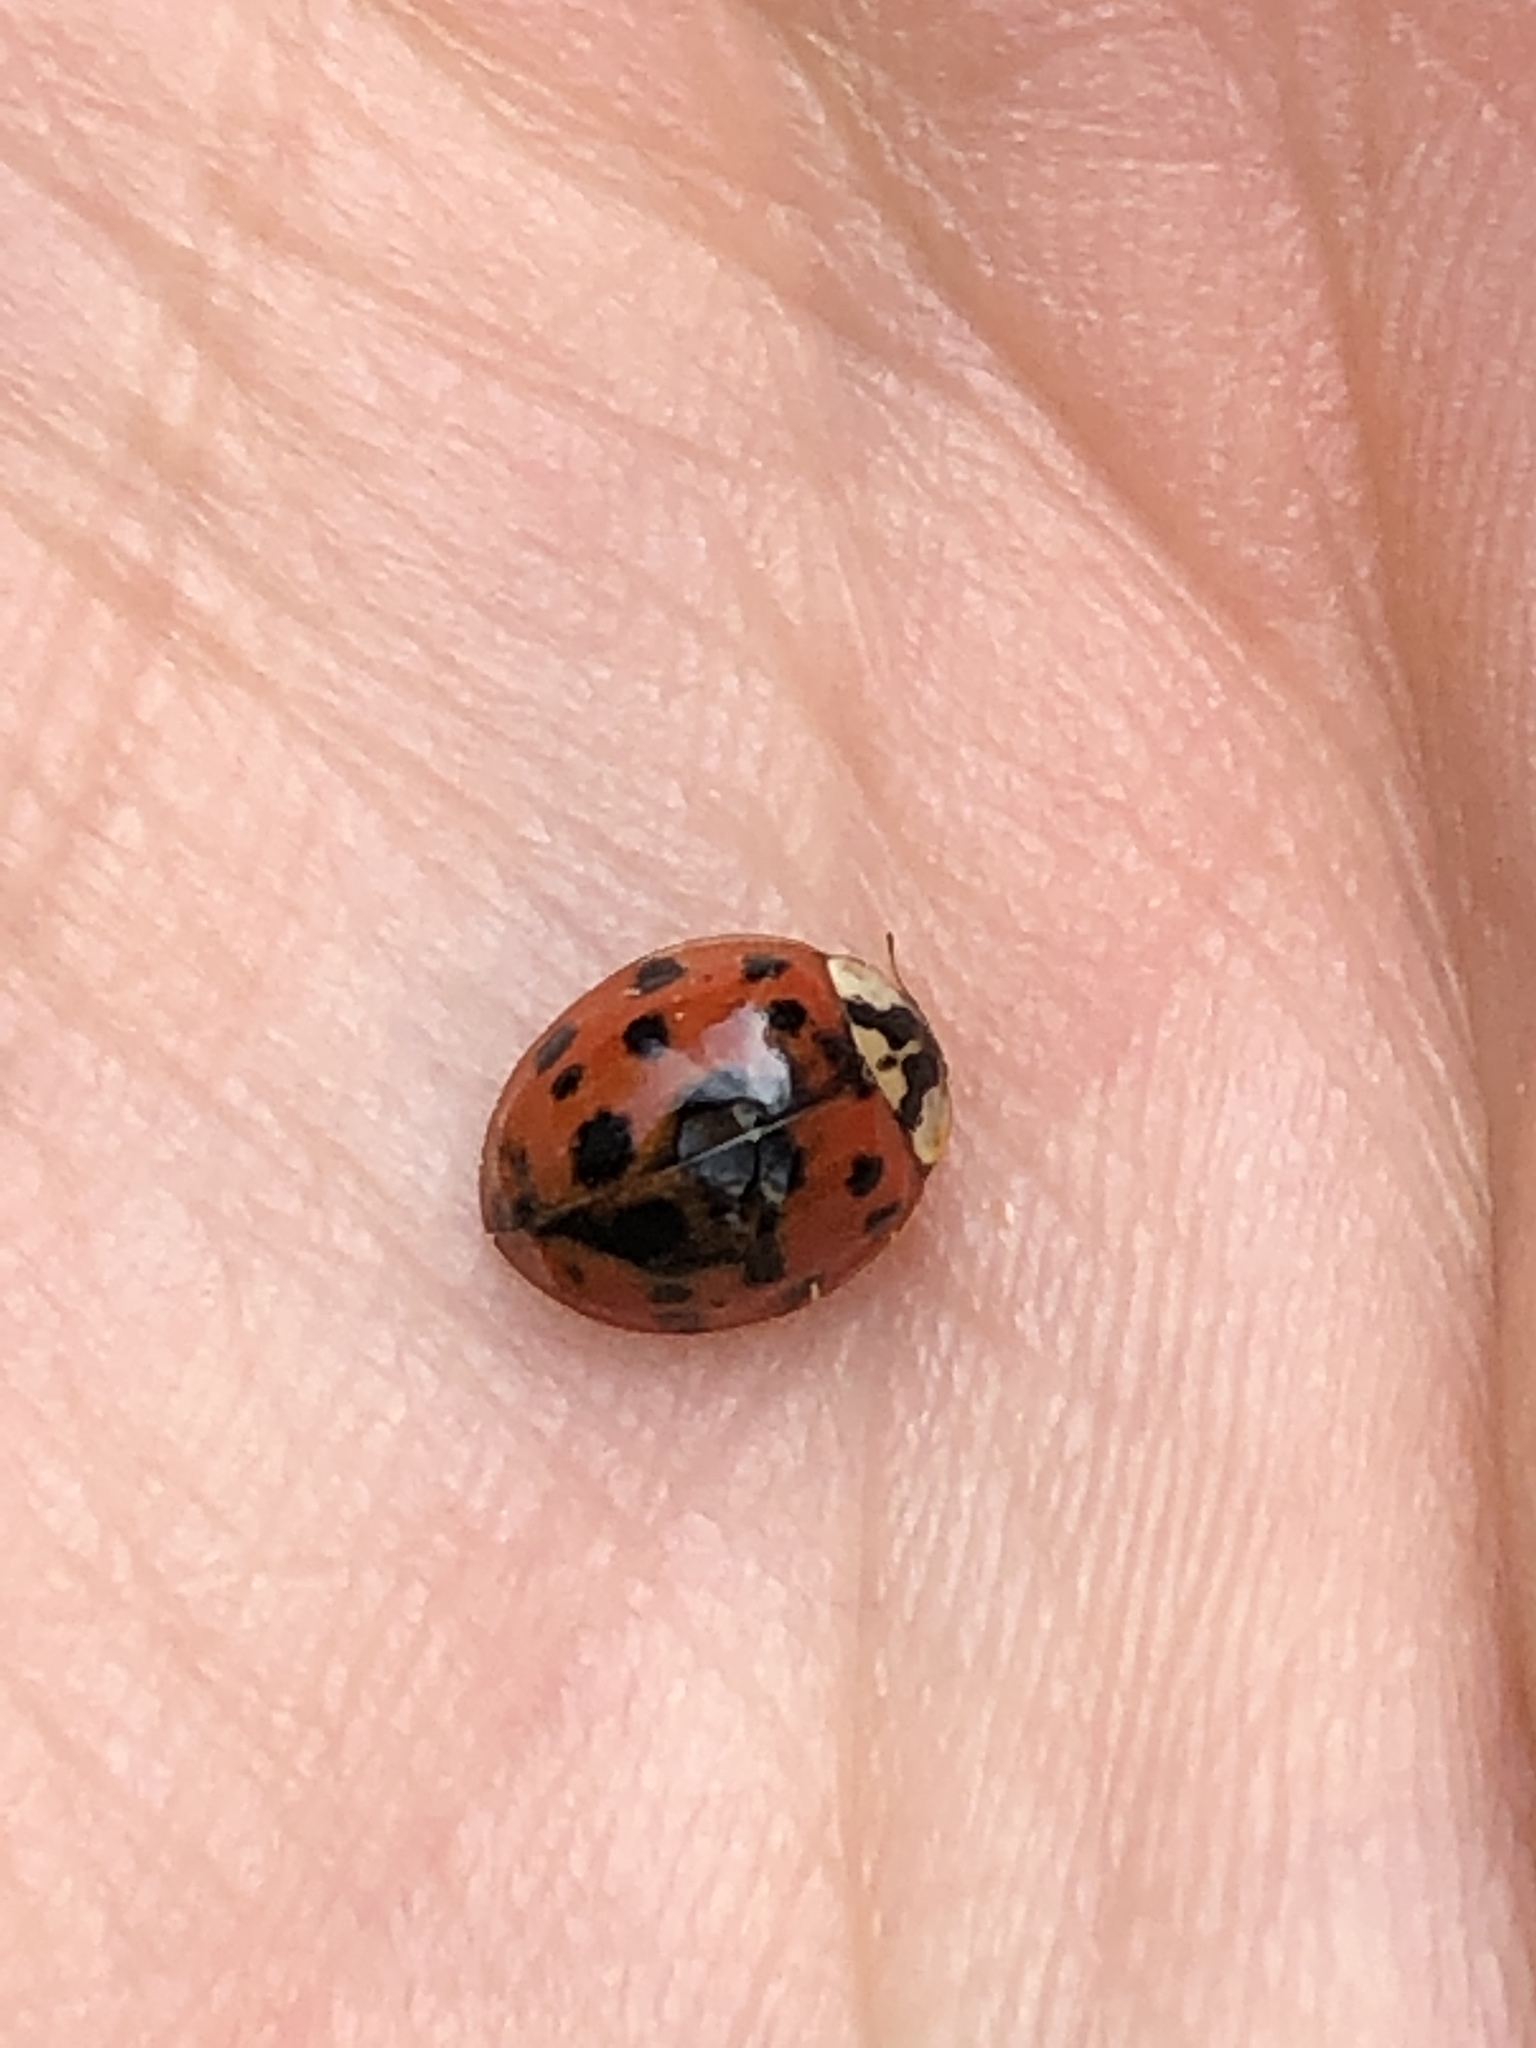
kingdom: Animalia
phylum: Arthropoda
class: Insecta
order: Coleoptera
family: Coccinellidae
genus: Harmonia
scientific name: Harmonia axyridis
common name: Harlequin ladybird
